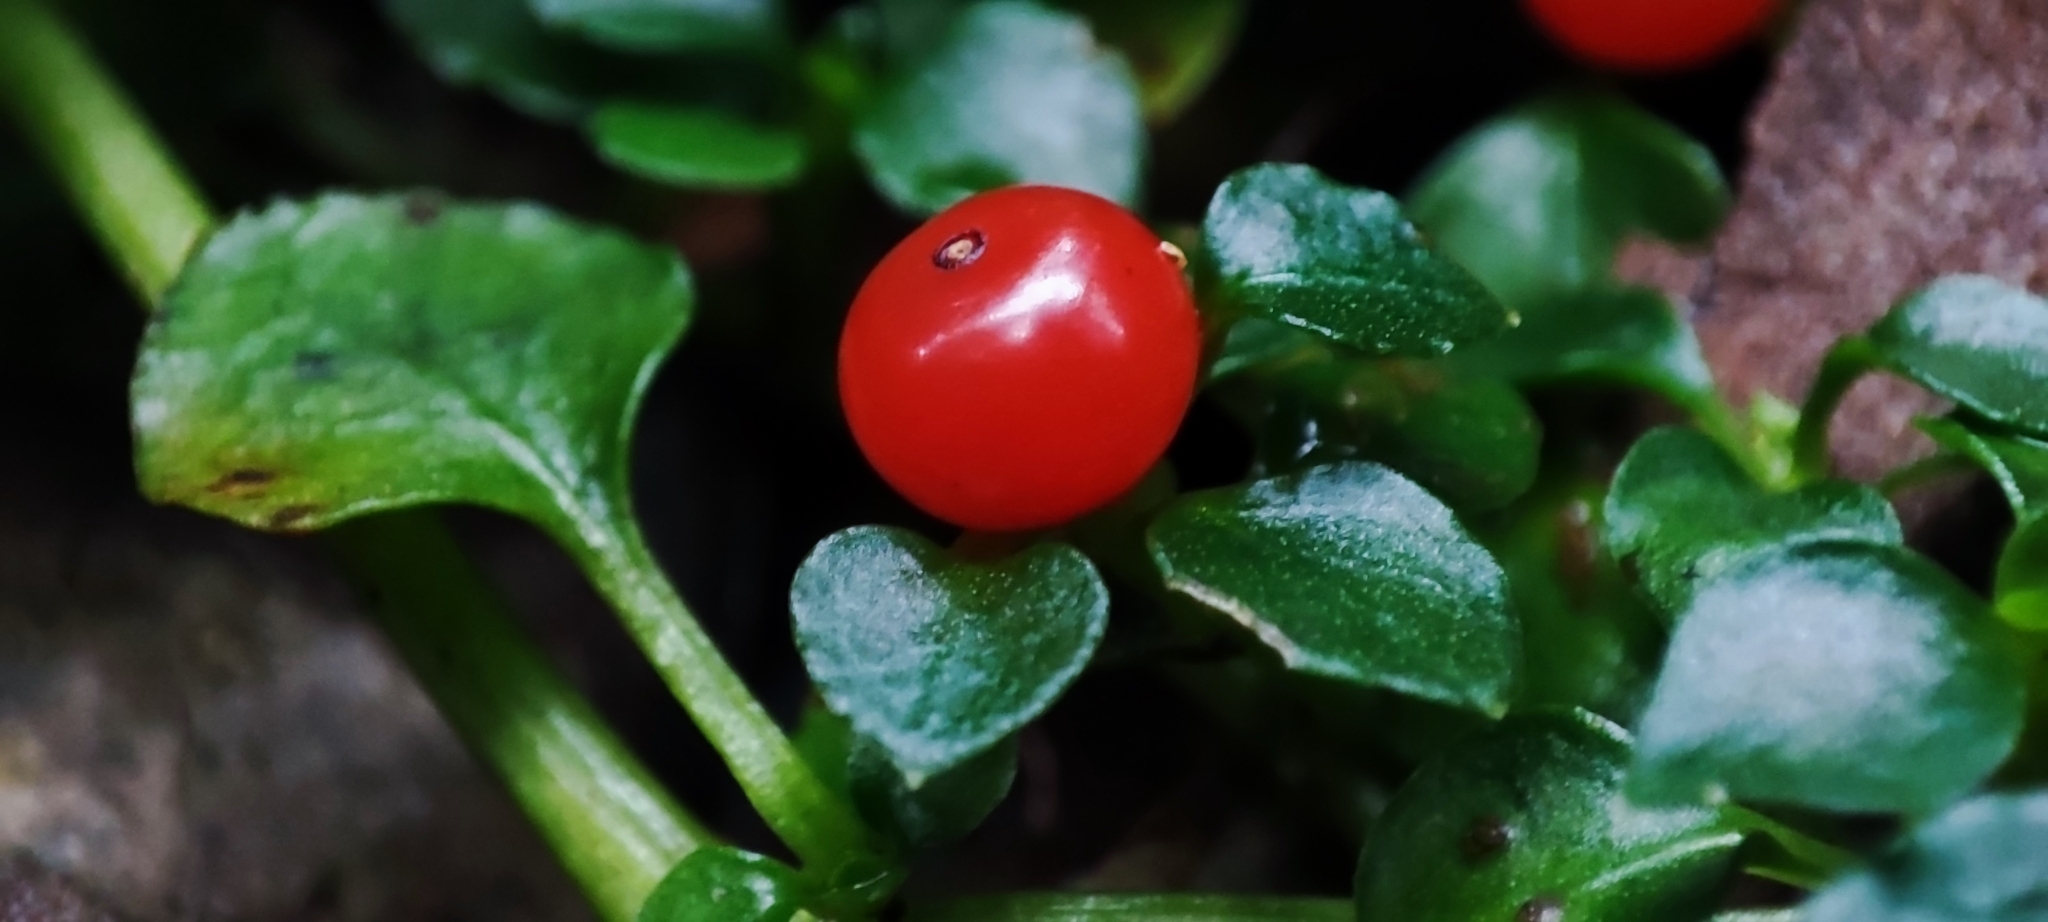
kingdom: Plantae
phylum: Tracheophyta
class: Magnoliopsida
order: Gentianales
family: Rubiaceae
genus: Nertera
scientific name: Nertera granadensis
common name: Beadplant
